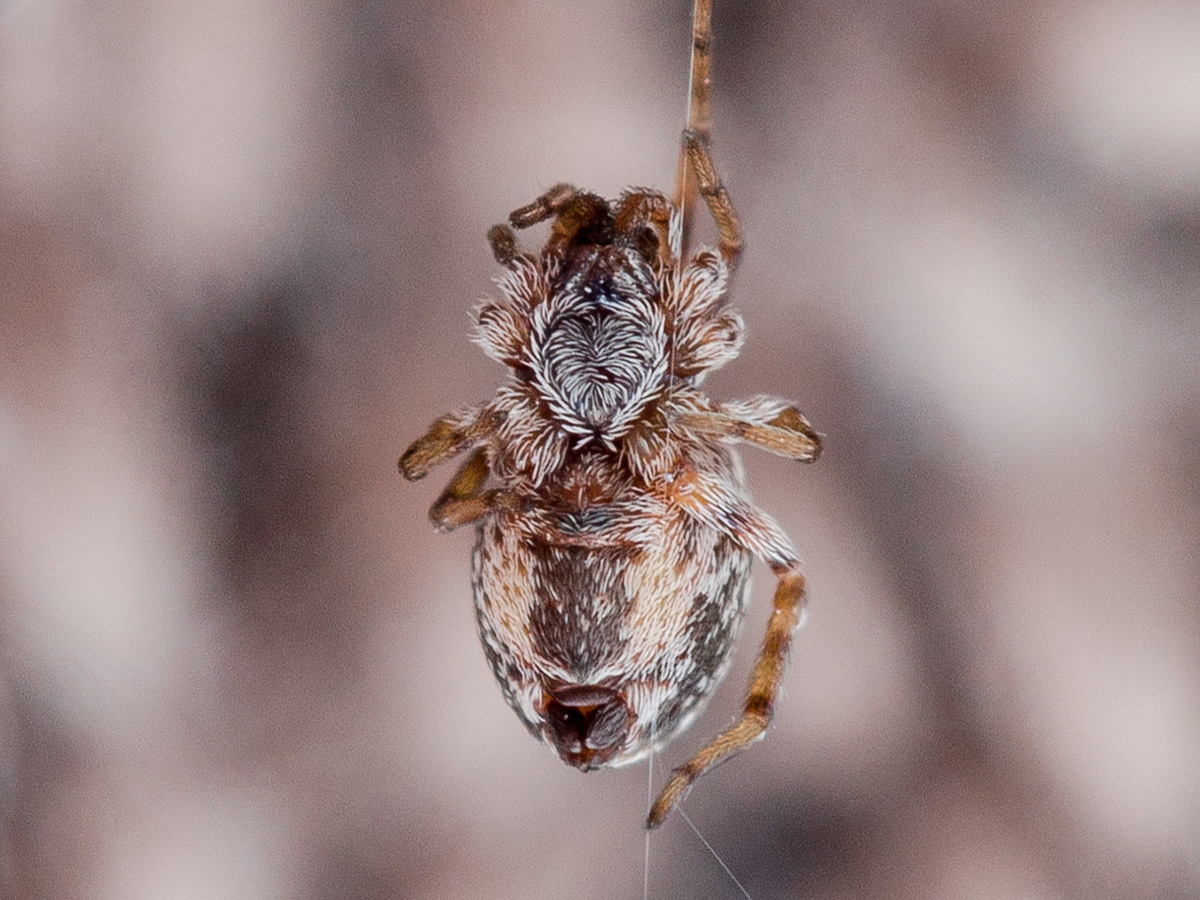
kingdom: Animalia
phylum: Arthropoda
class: Arachnida
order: Araneae
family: Dictynidae
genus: Archaeodictyna
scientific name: Archaeodictyna consecuta
